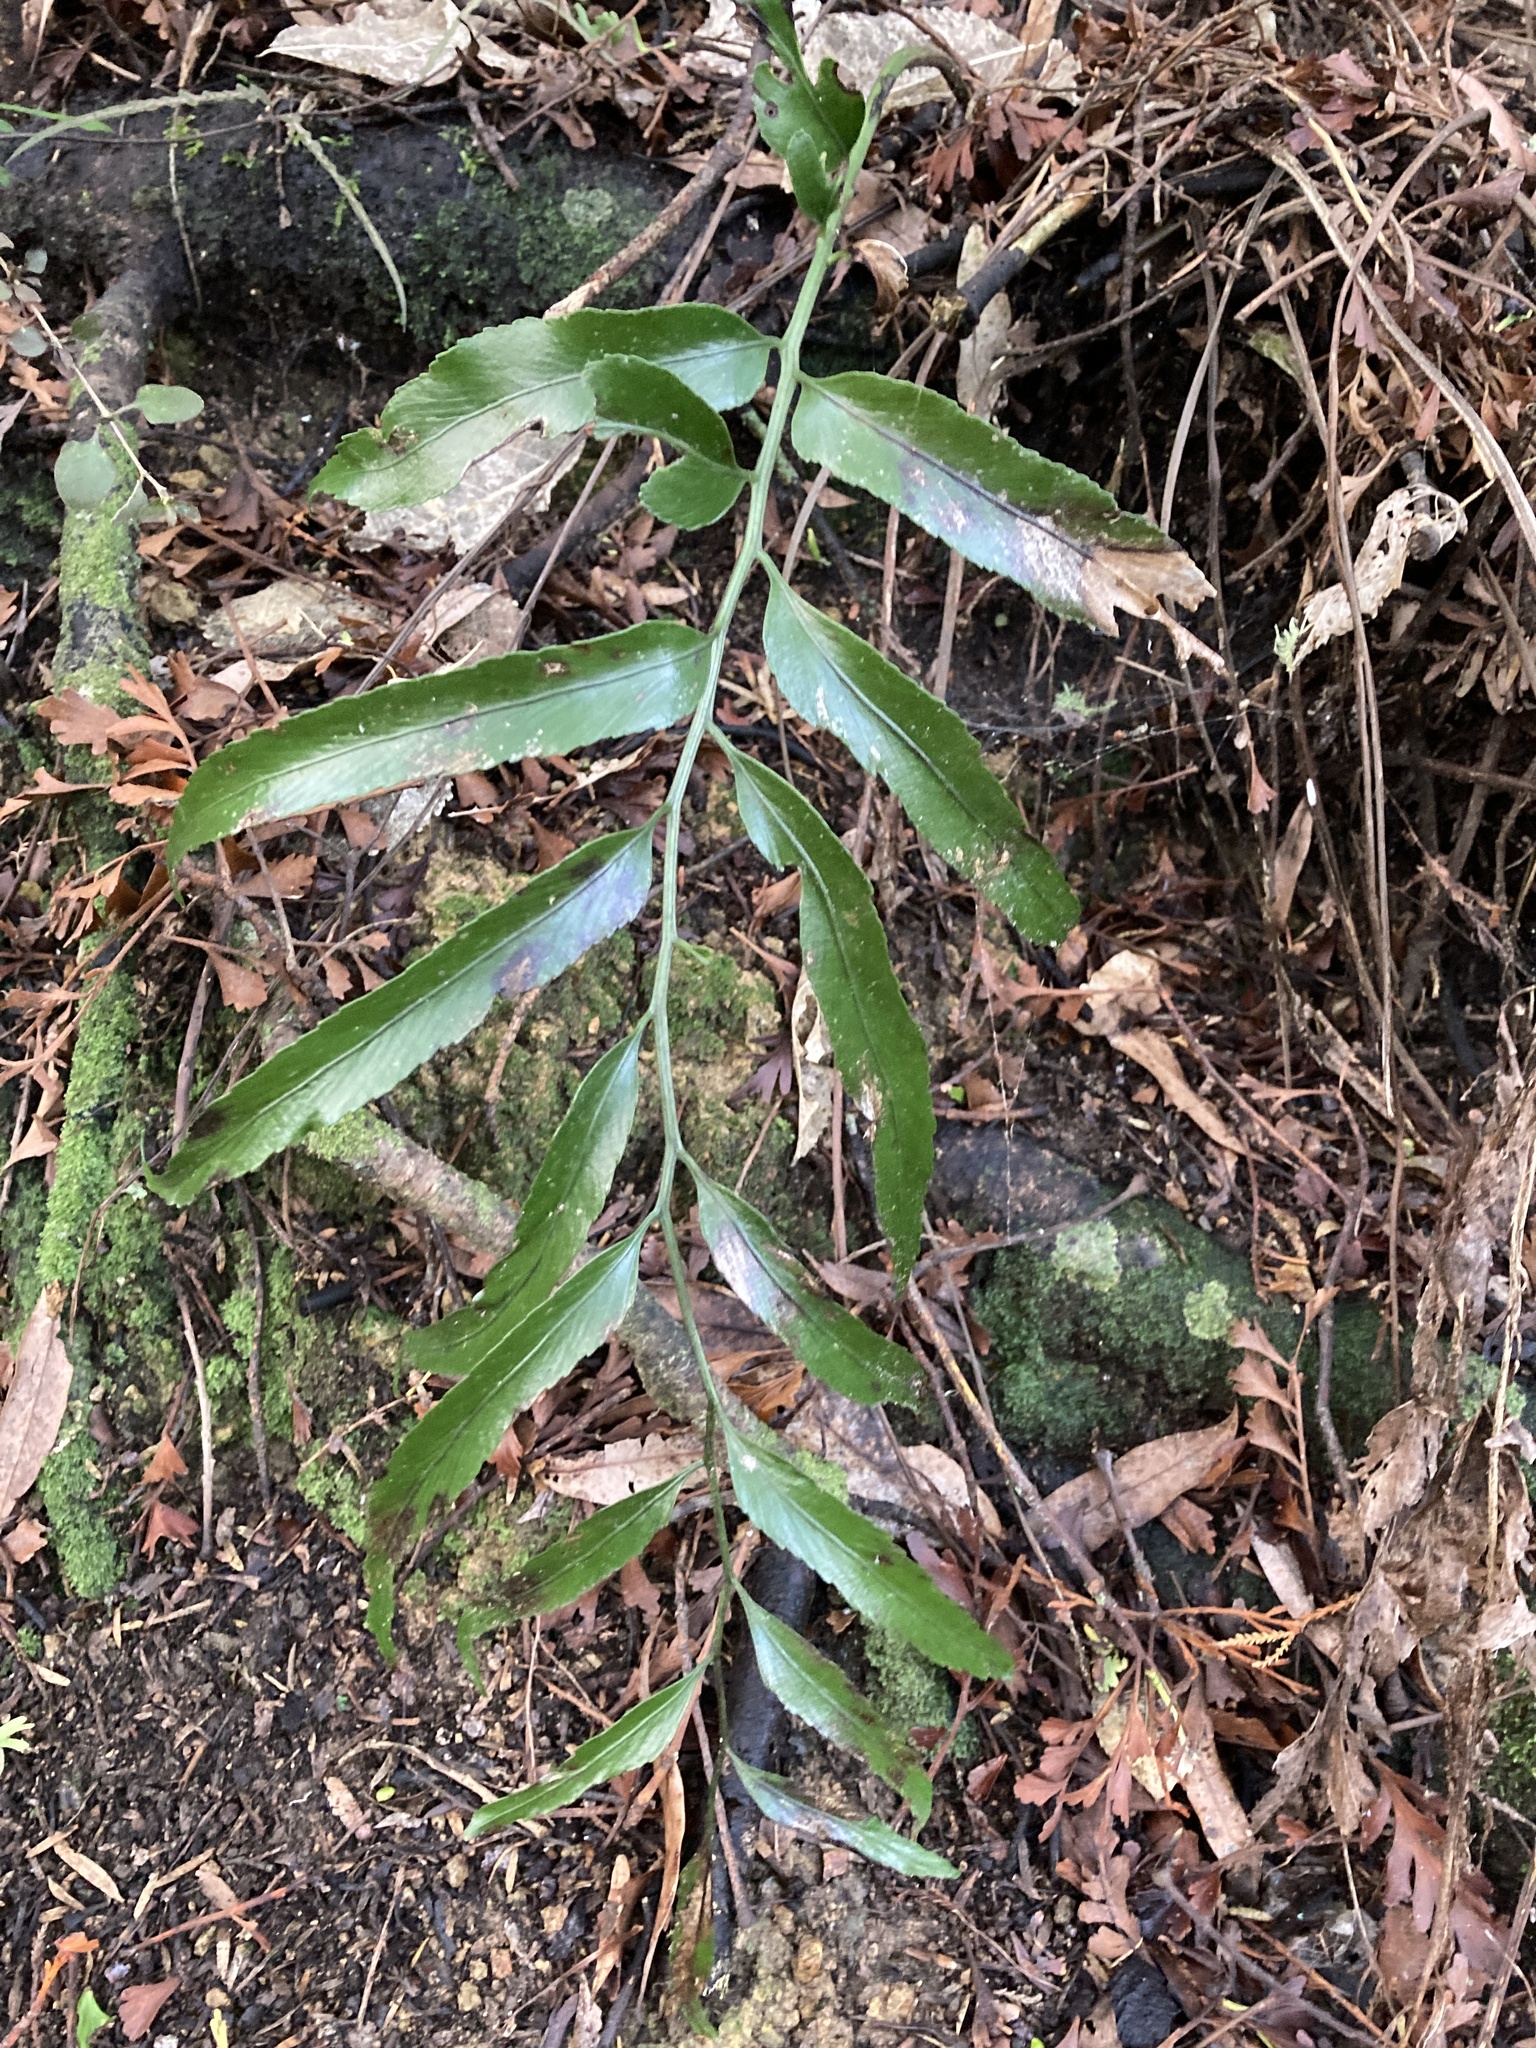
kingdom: Plantae
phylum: Tracheophyta
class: Polypodiopsida
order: Polypodiales
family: Aspleniaceae
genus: Asplenium
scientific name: Asplenium oblongifolium
